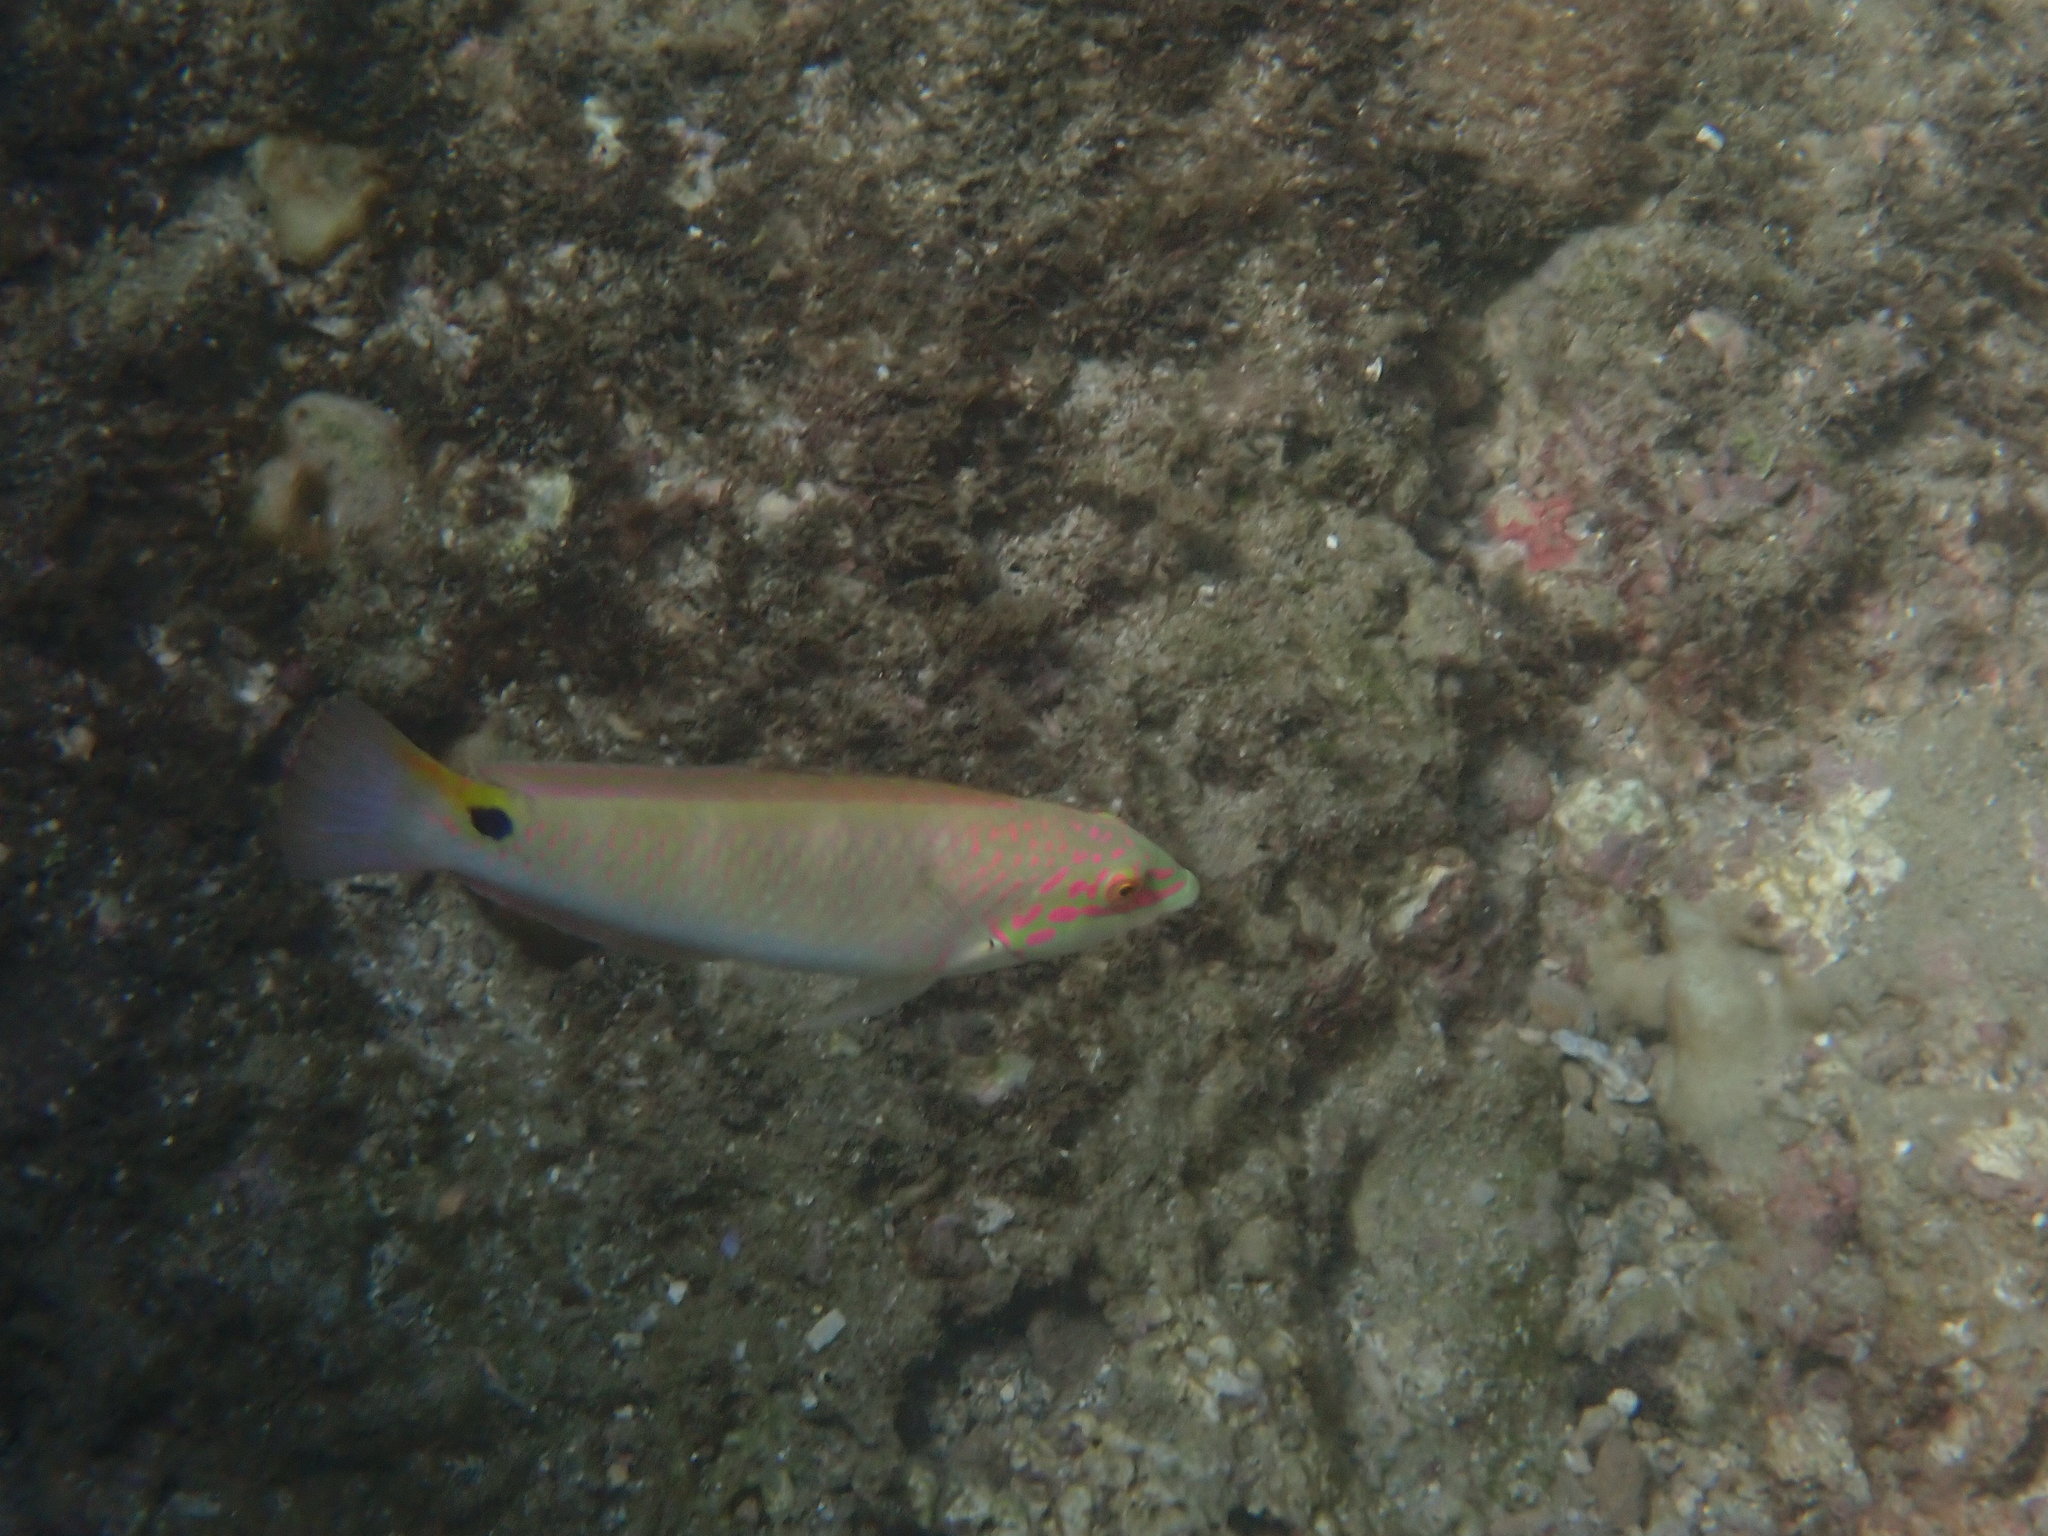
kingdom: Animalia
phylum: Chordata
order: Perciformes
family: Labridae
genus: Halichoeres
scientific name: Halichoeres trimaculatus
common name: Three-spot wrasse
